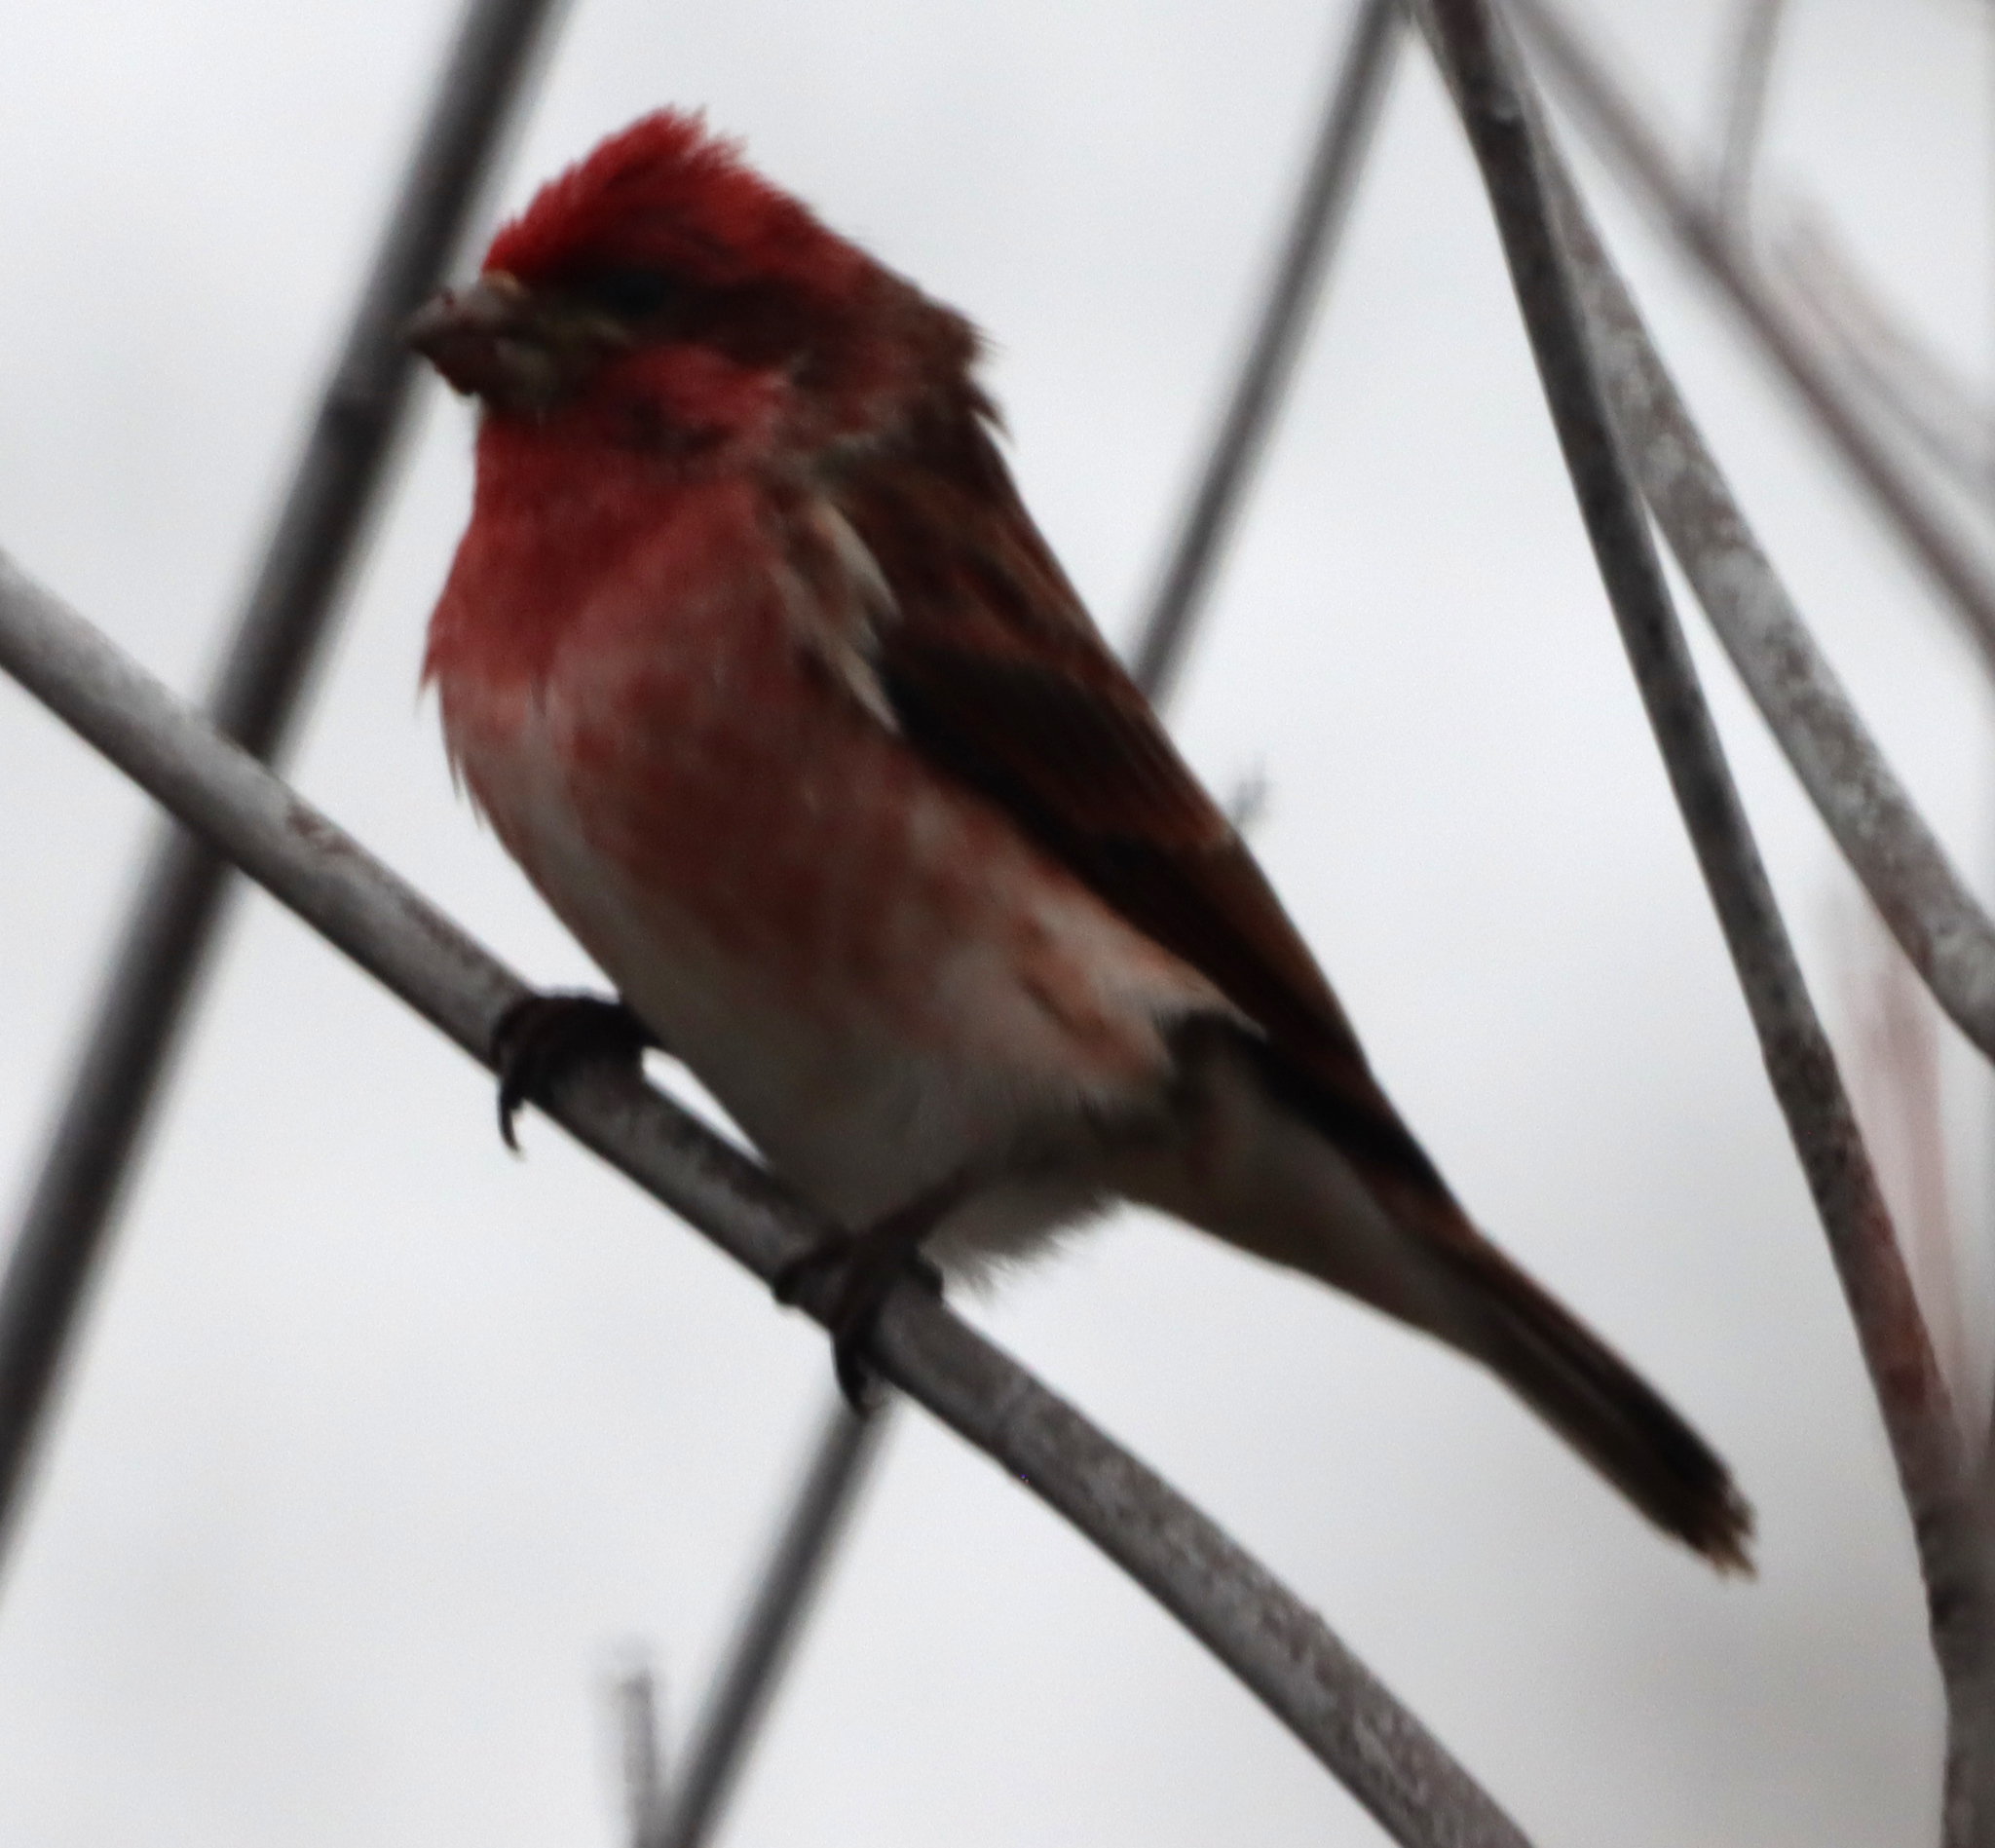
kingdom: Animalia
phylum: Chordata
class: Aves
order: Passeriformes
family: Fringillidae
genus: Haemorhous
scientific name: Haemorhous purpureus
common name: Purple finch
